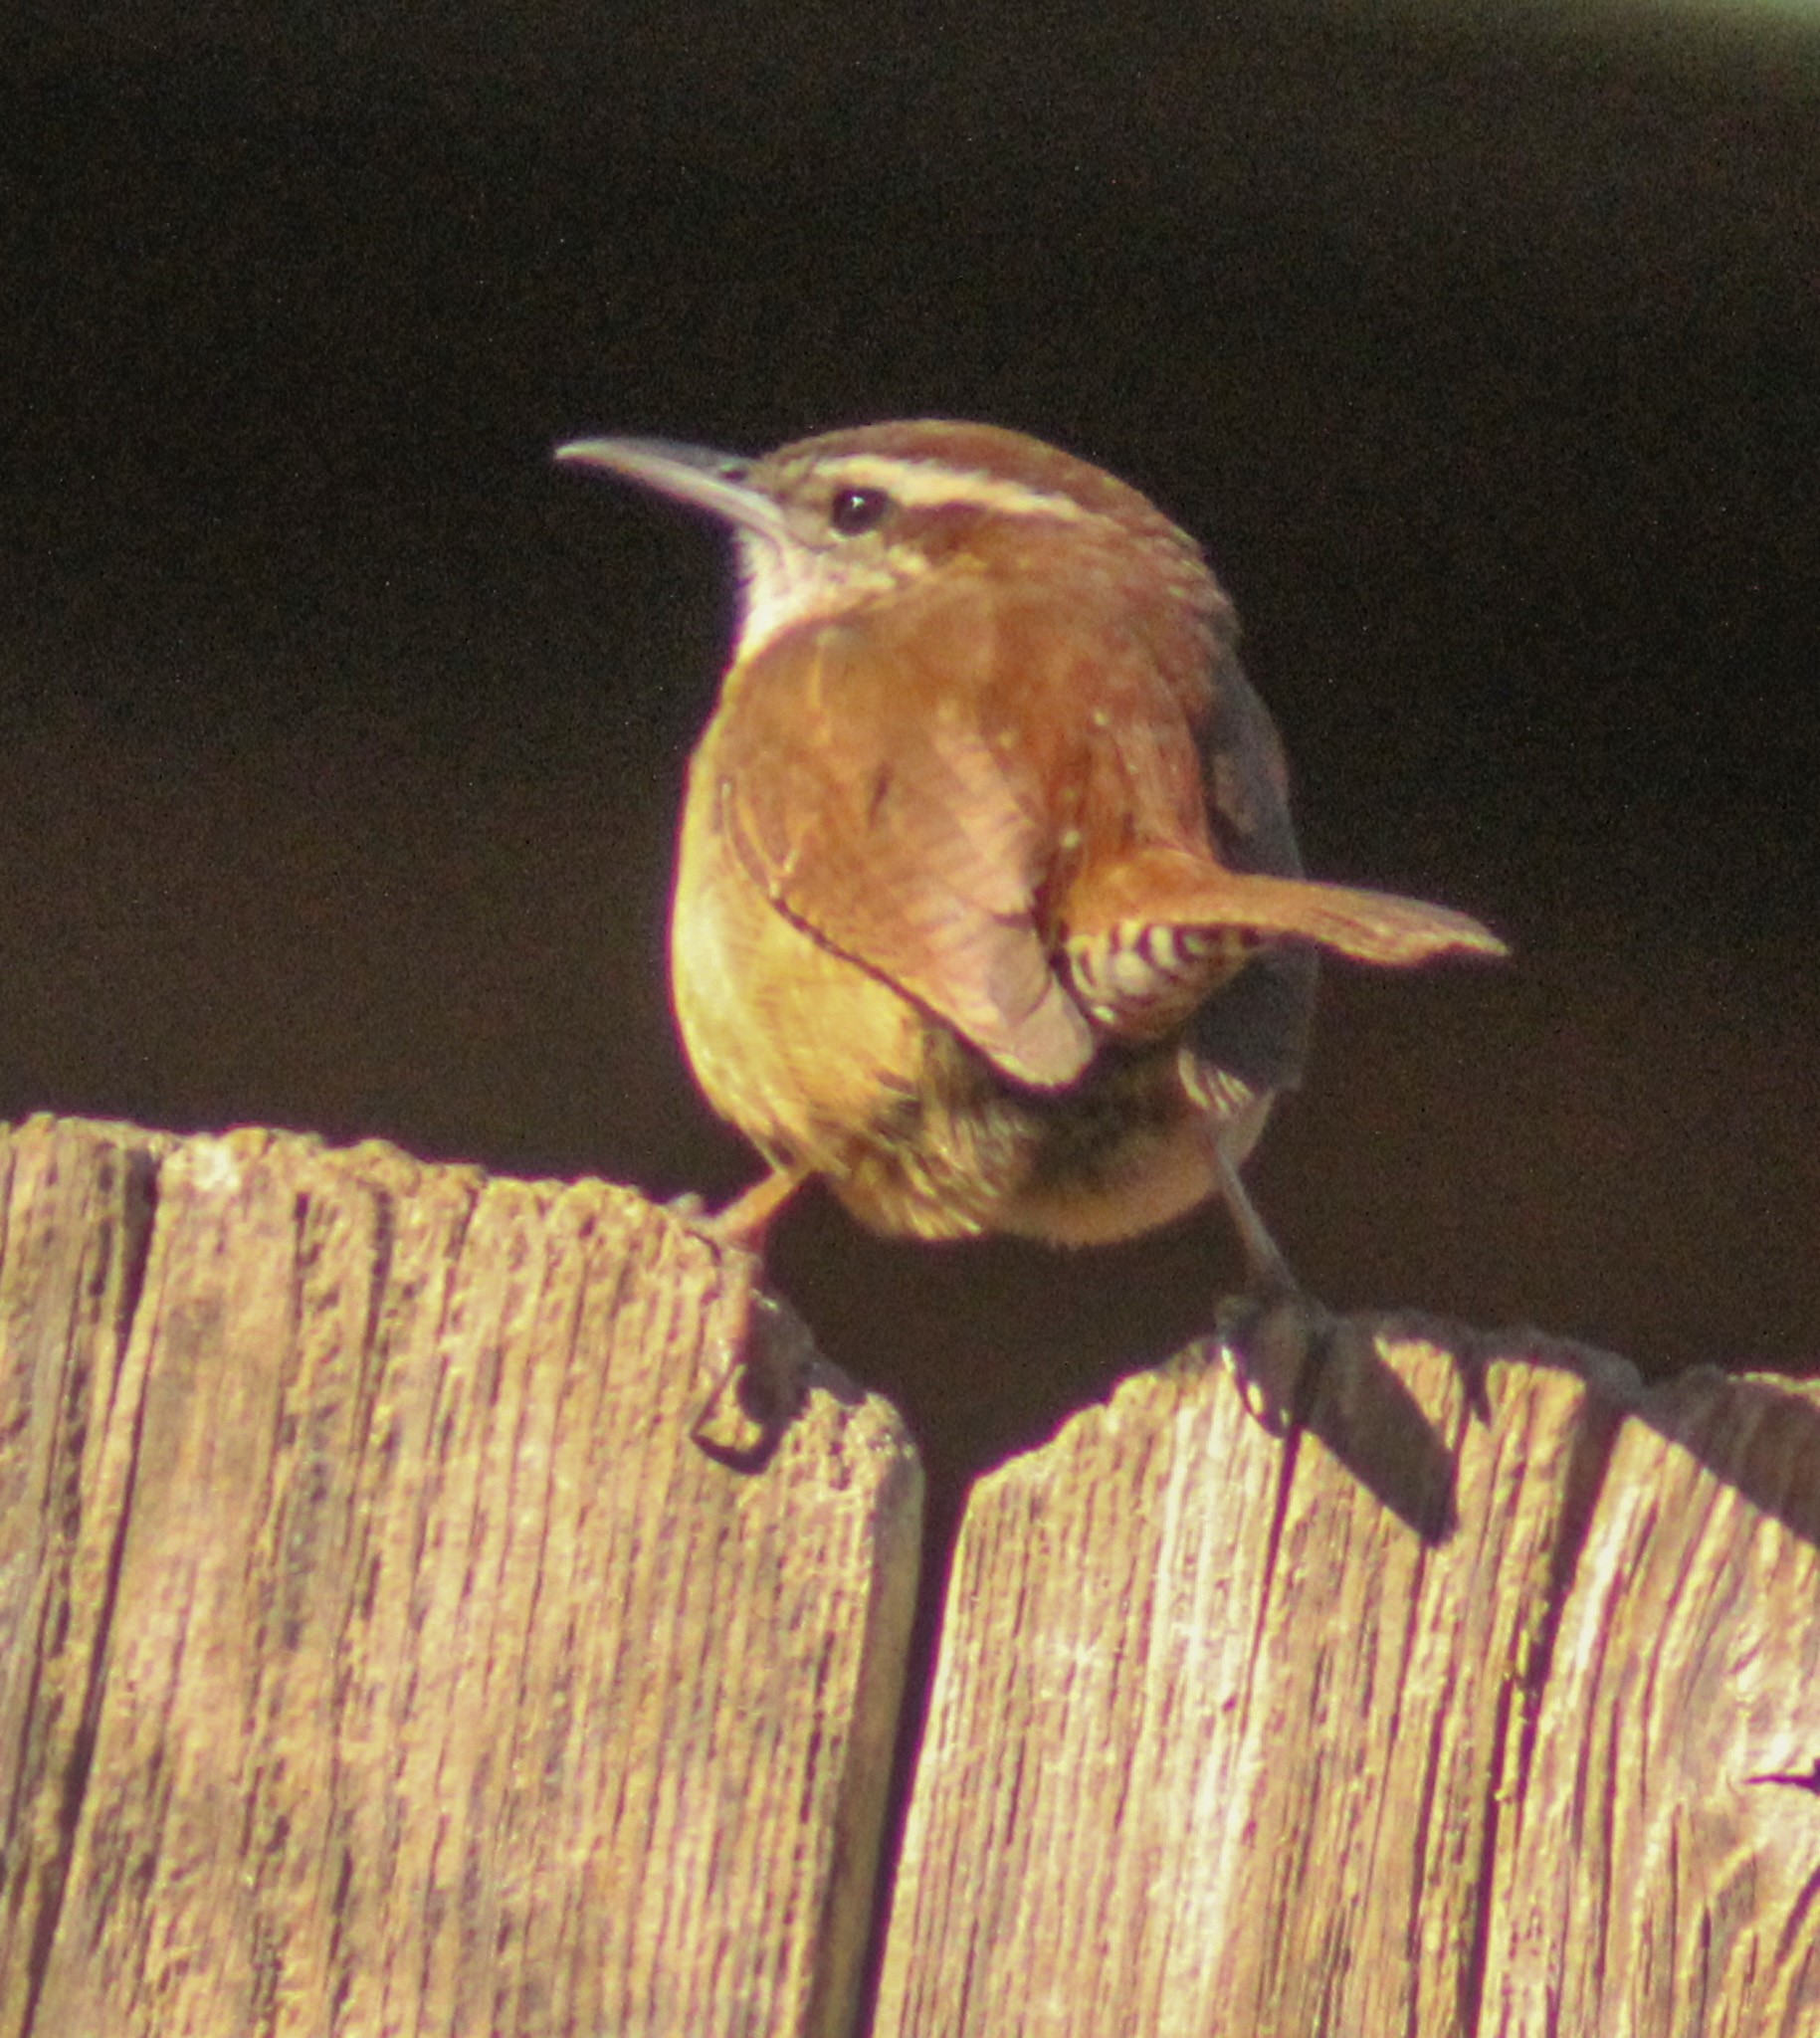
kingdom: Animalia
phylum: Chordata
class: Aves
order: Passeriformes
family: Troglodytidae
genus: Thryothorus
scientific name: Thryothorus ludovicianus
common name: Carolina wren
